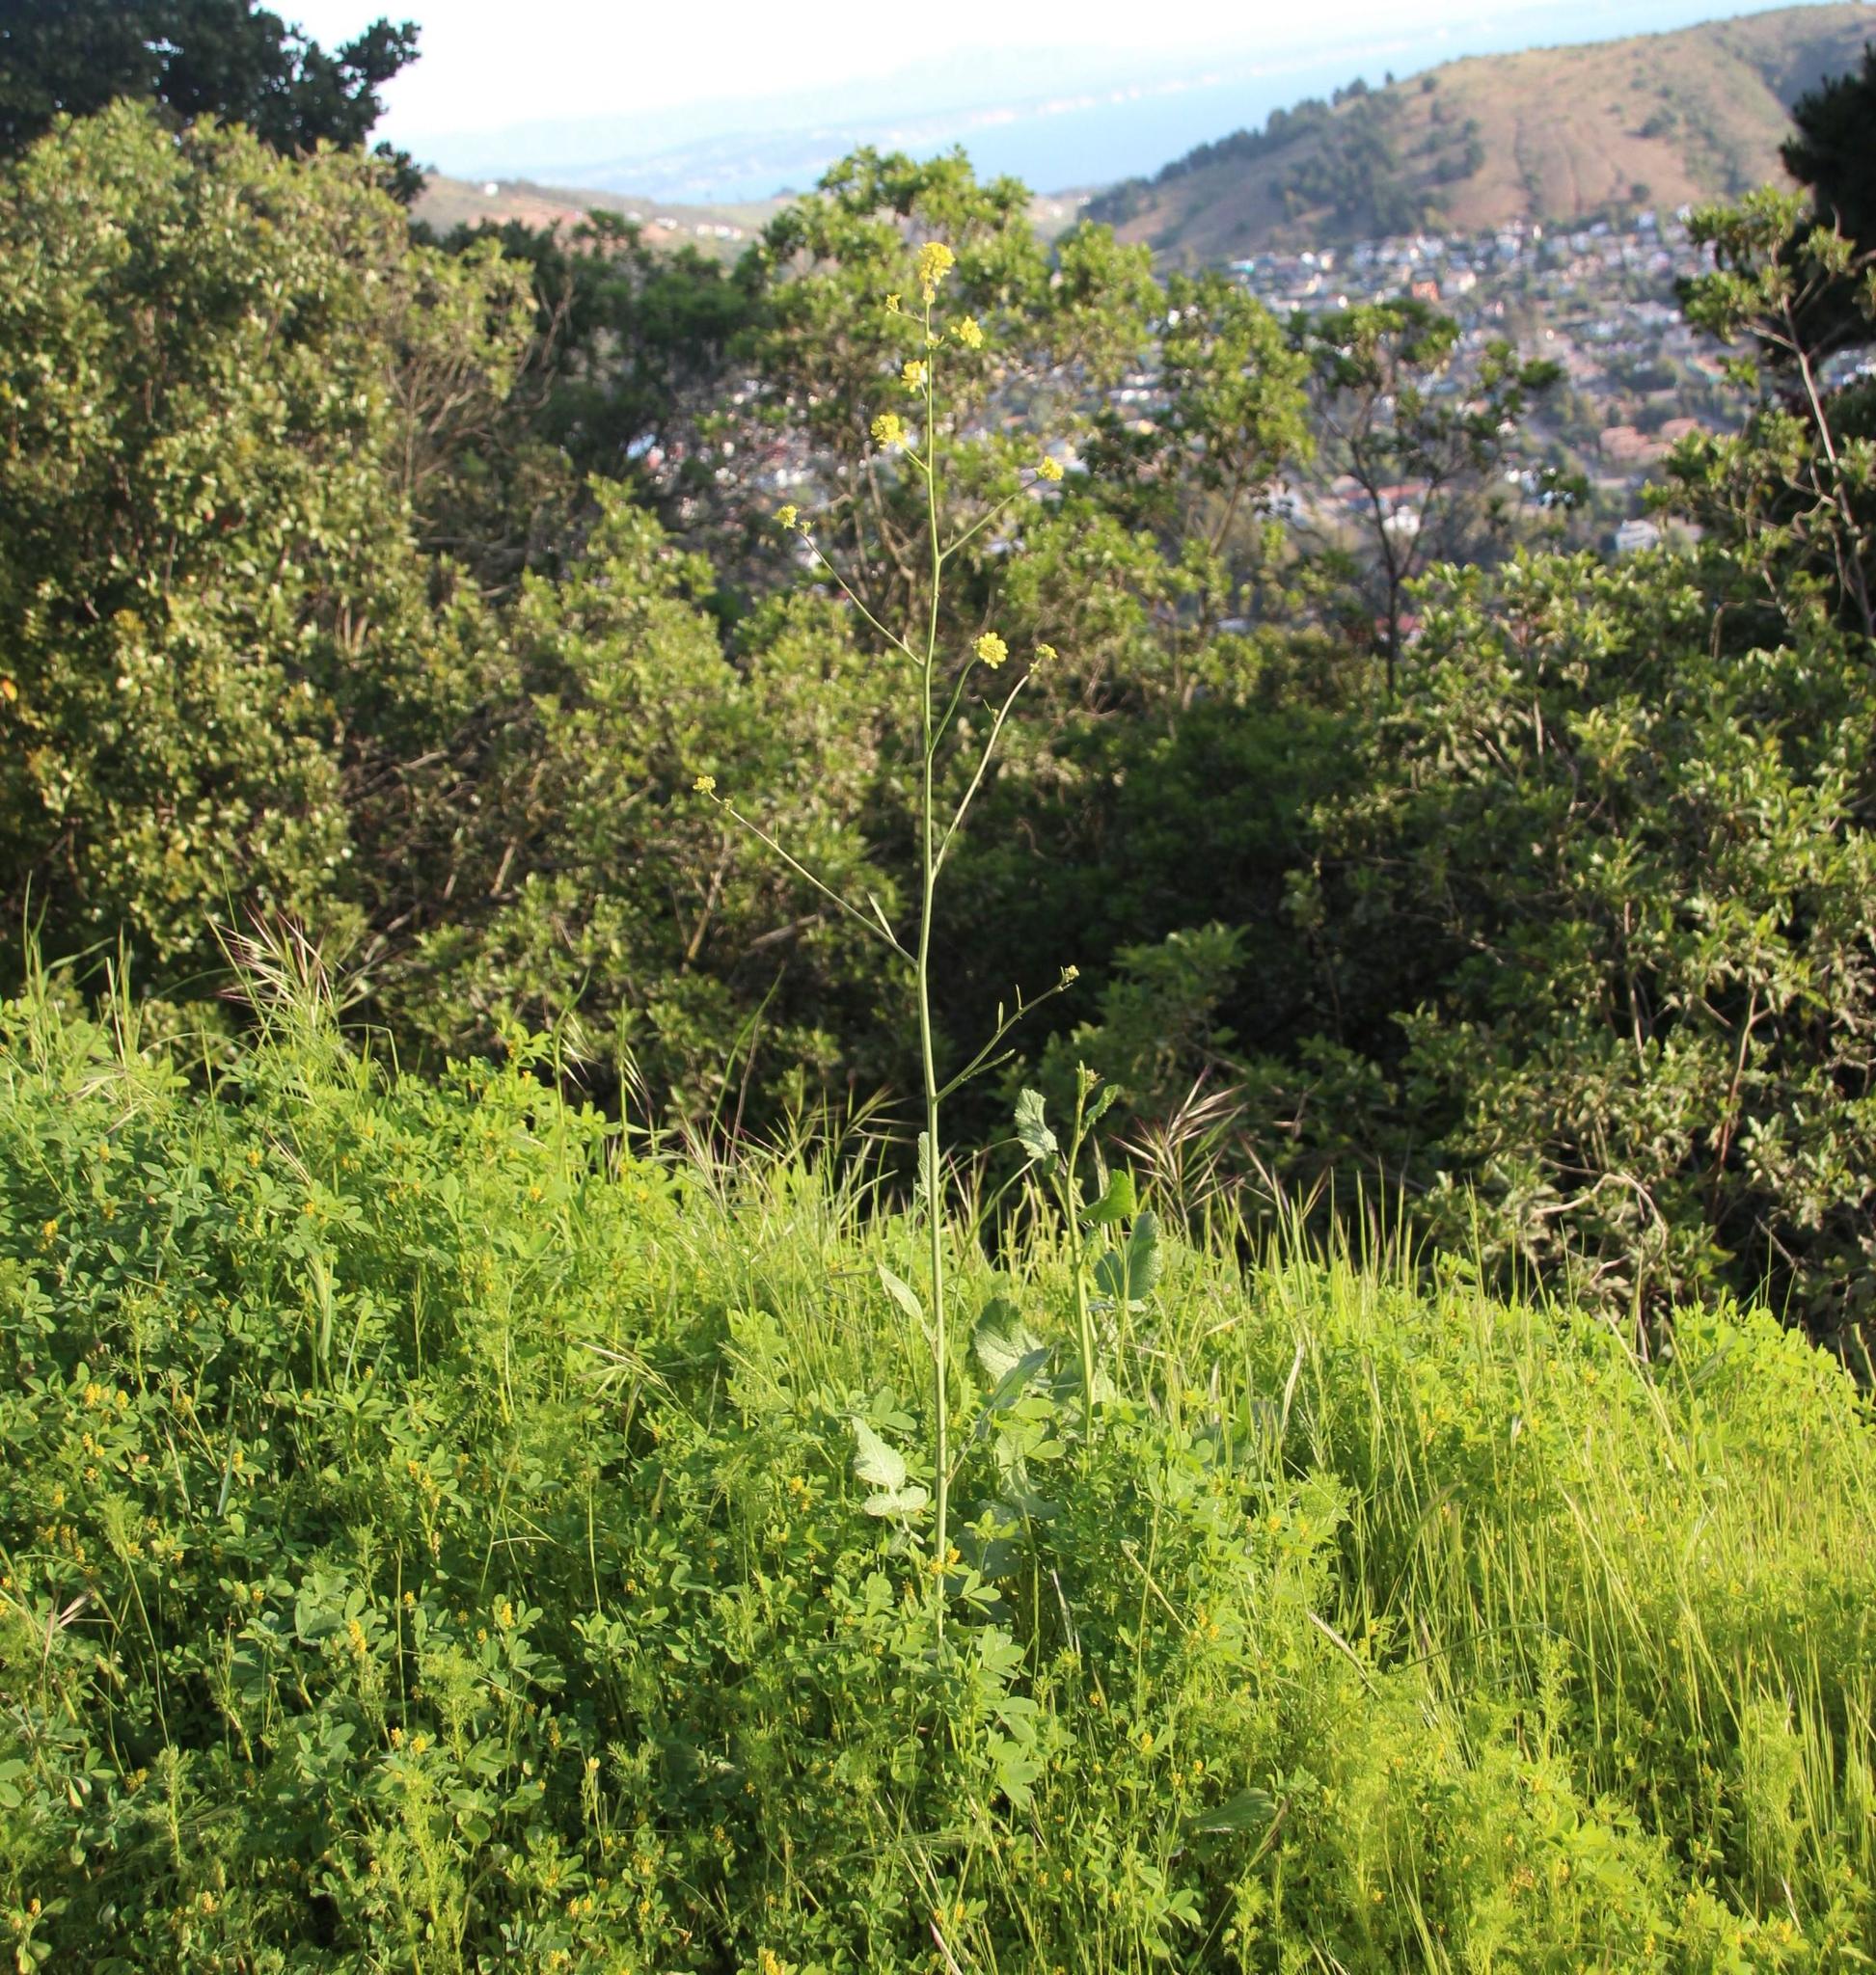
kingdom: Plantae
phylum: Tracheophyta
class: Magnoliopsida
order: Brassicales
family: Brassicaceae
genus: Rapistrum
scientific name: Rapistrum rugosum
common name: Annual bastardcabbage
